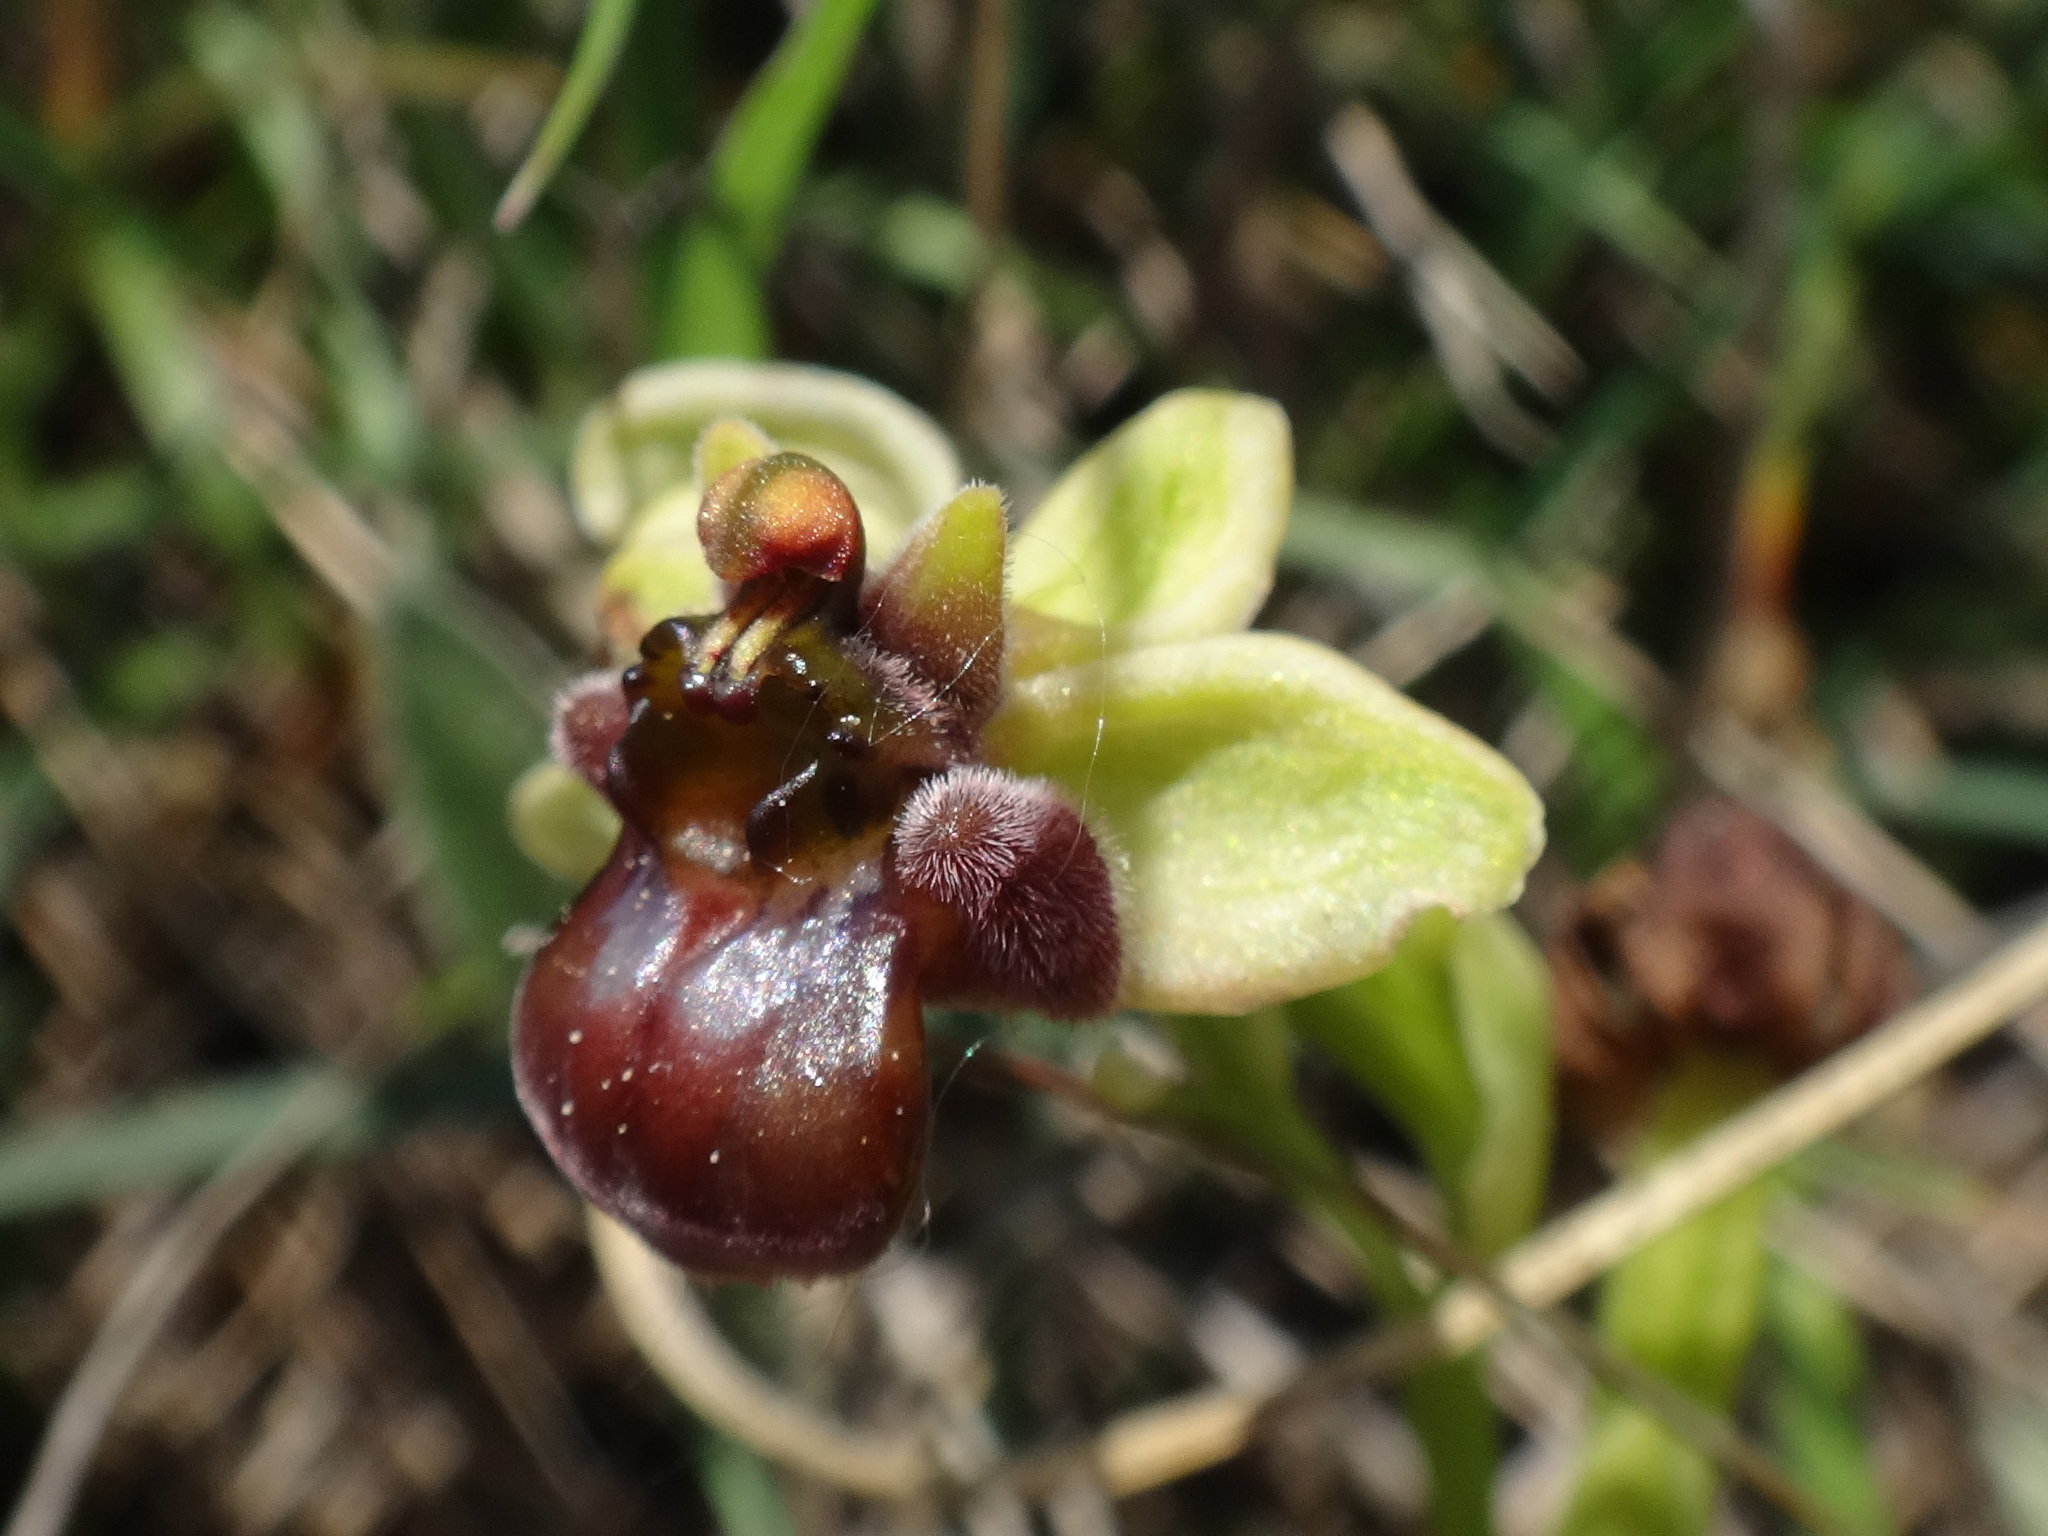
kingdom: Plantae
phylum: Tracheophyta
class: Liliopsida
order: Asparagales
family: Orchidaceae
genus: Ophrys
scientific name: Ophrys bombyliflora
